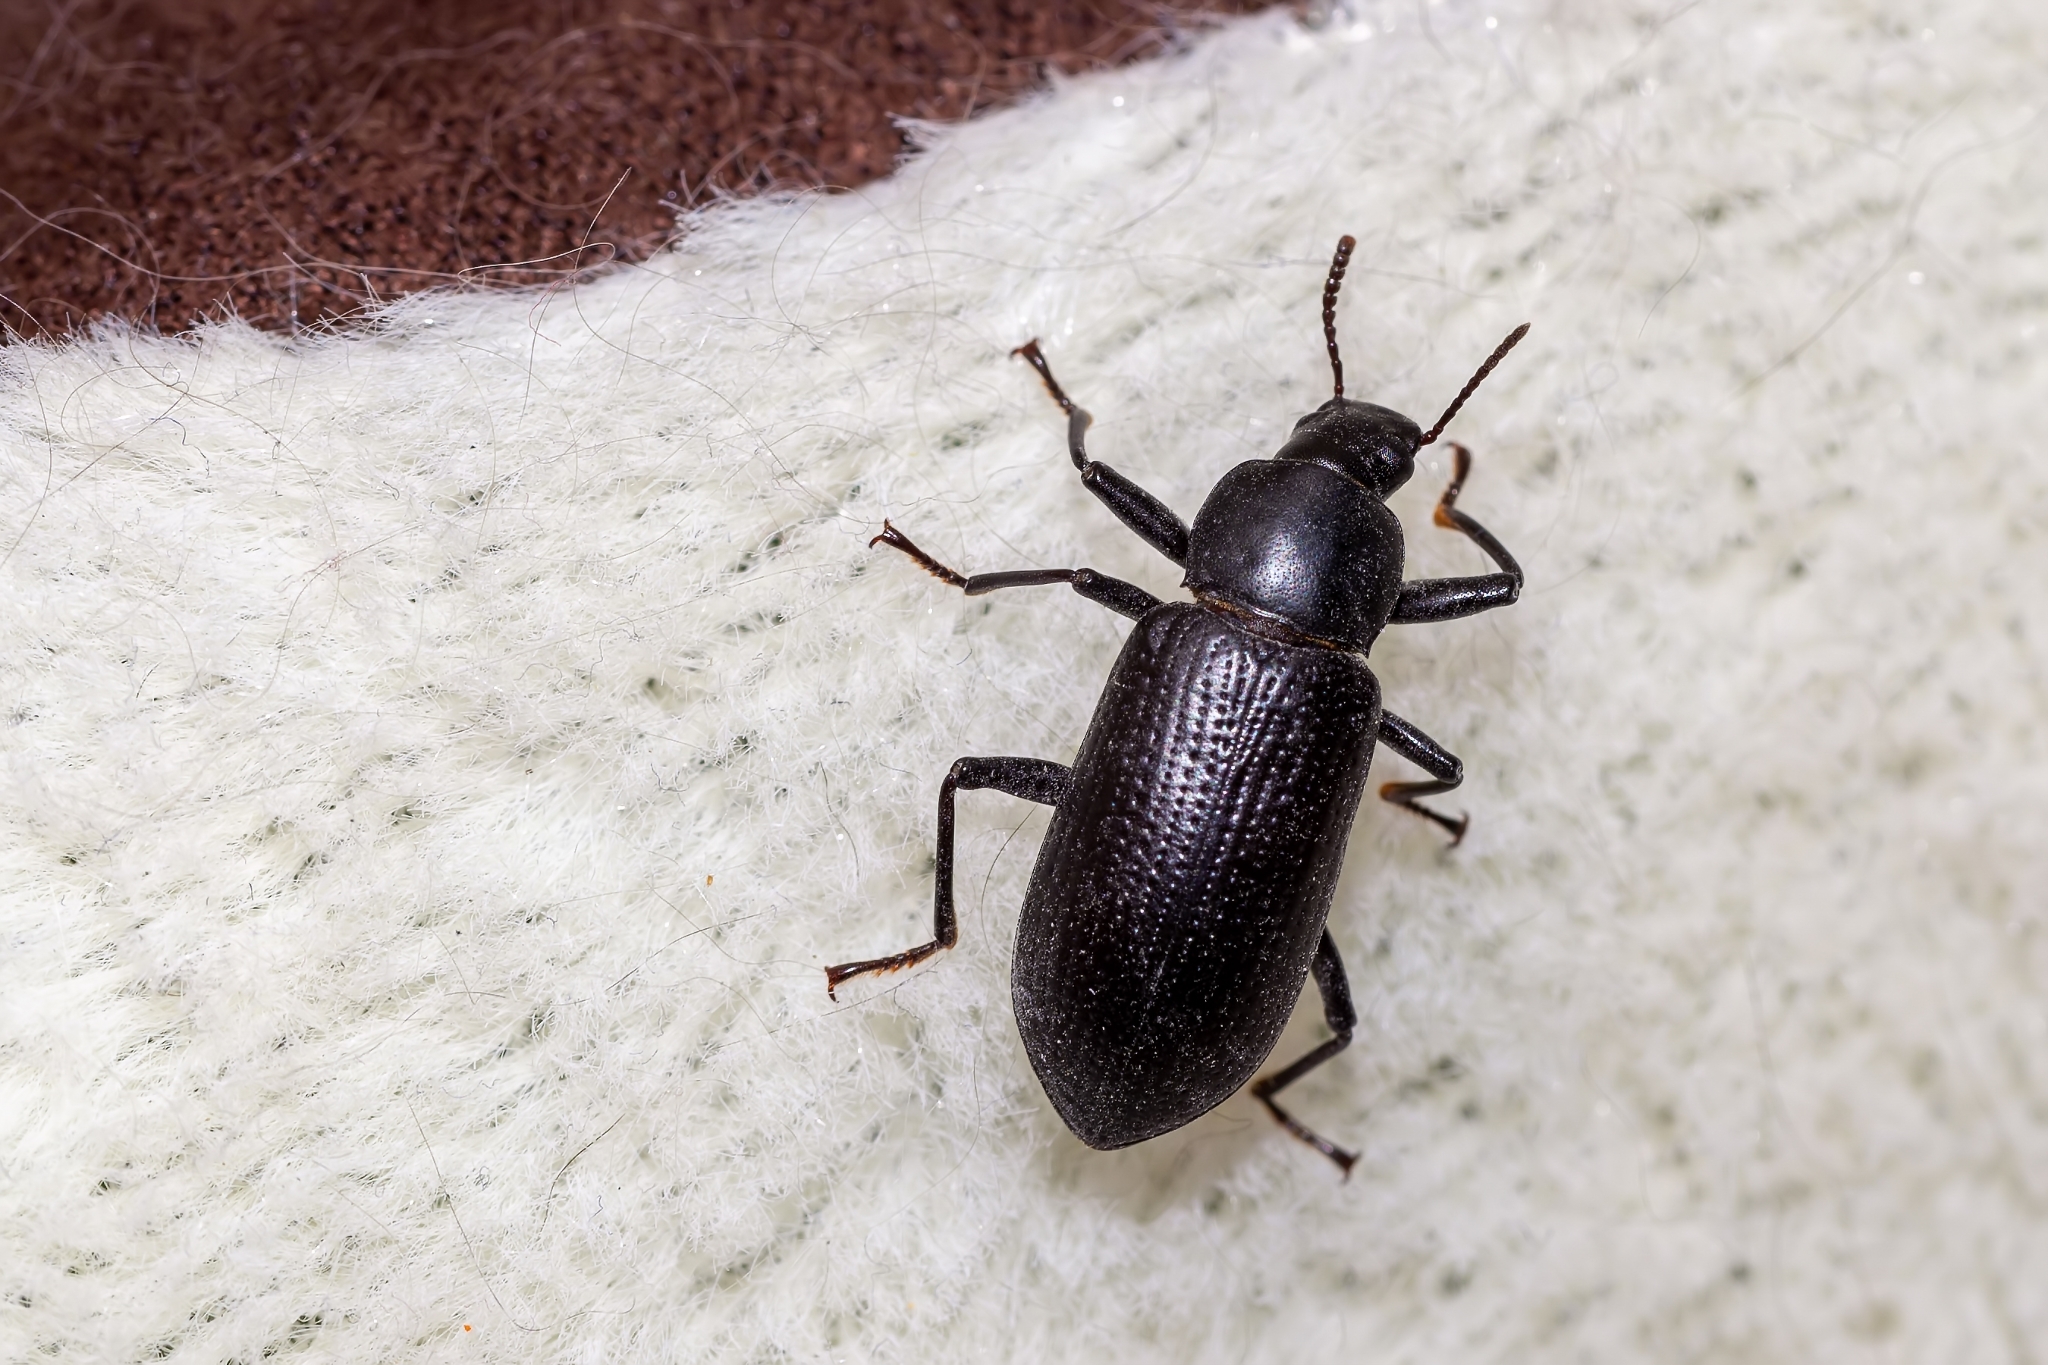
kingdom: Animalia
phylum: Arthropoda
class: Insecta
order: Coleoptera
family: Tenebrionidae
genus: Alobates
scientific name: Alobates
